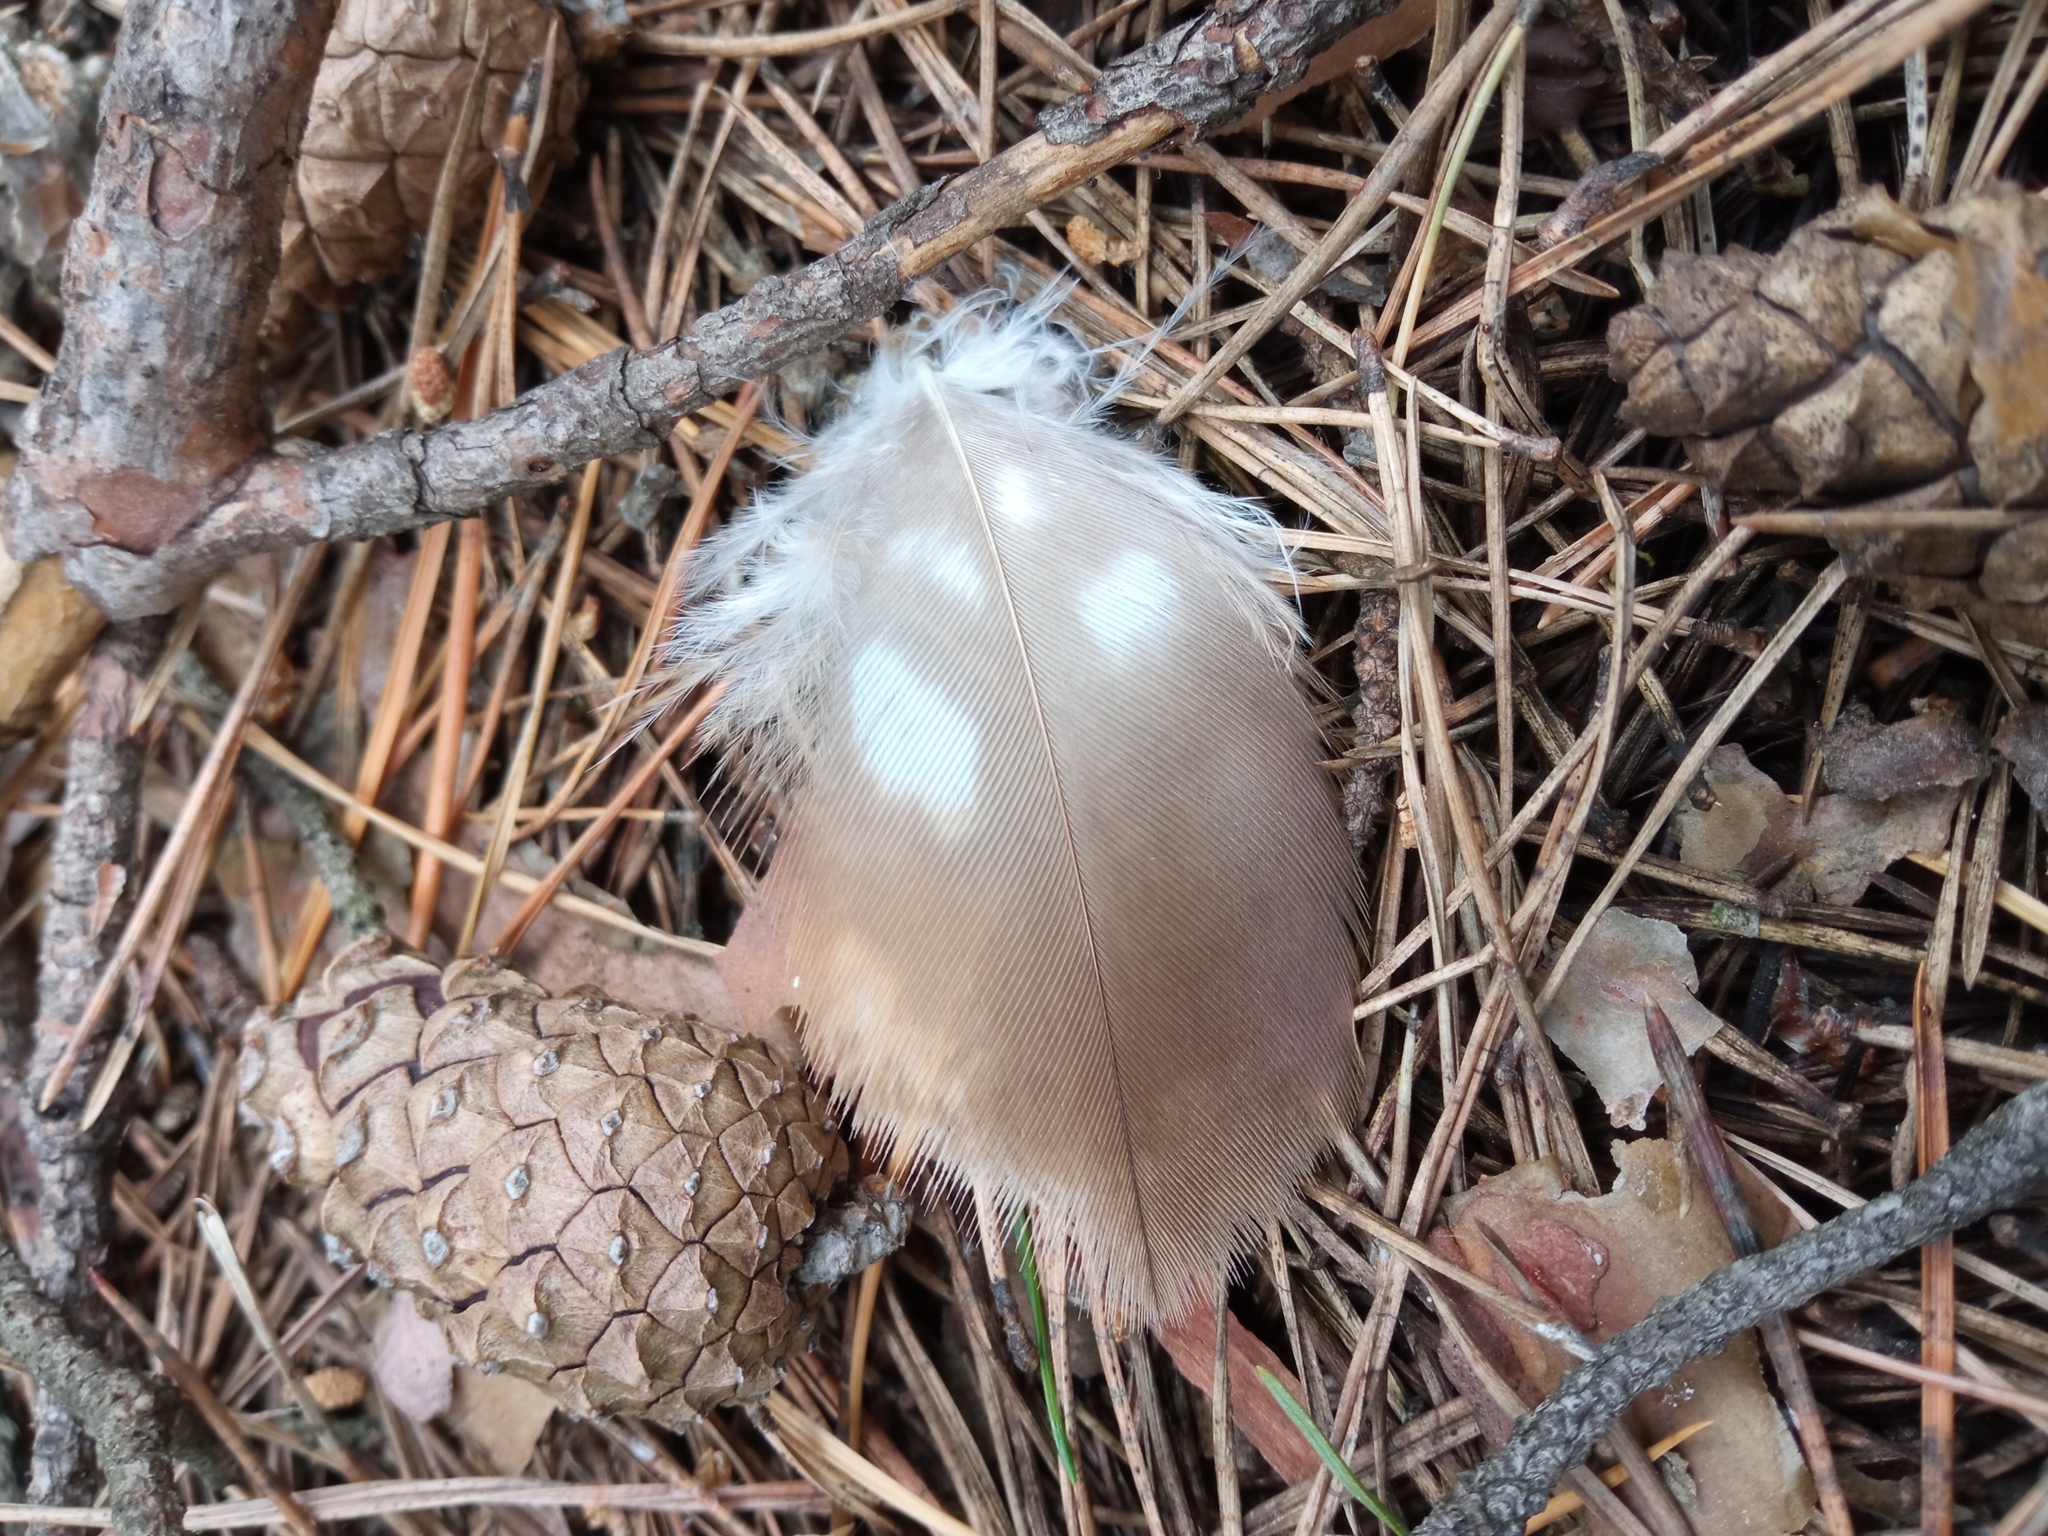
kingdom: Animalia
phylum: Chordata
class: Aves
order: Accipitriformes
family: Accipitridae
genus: Buteo
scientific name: Buteo buteo
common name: Common buzzard
